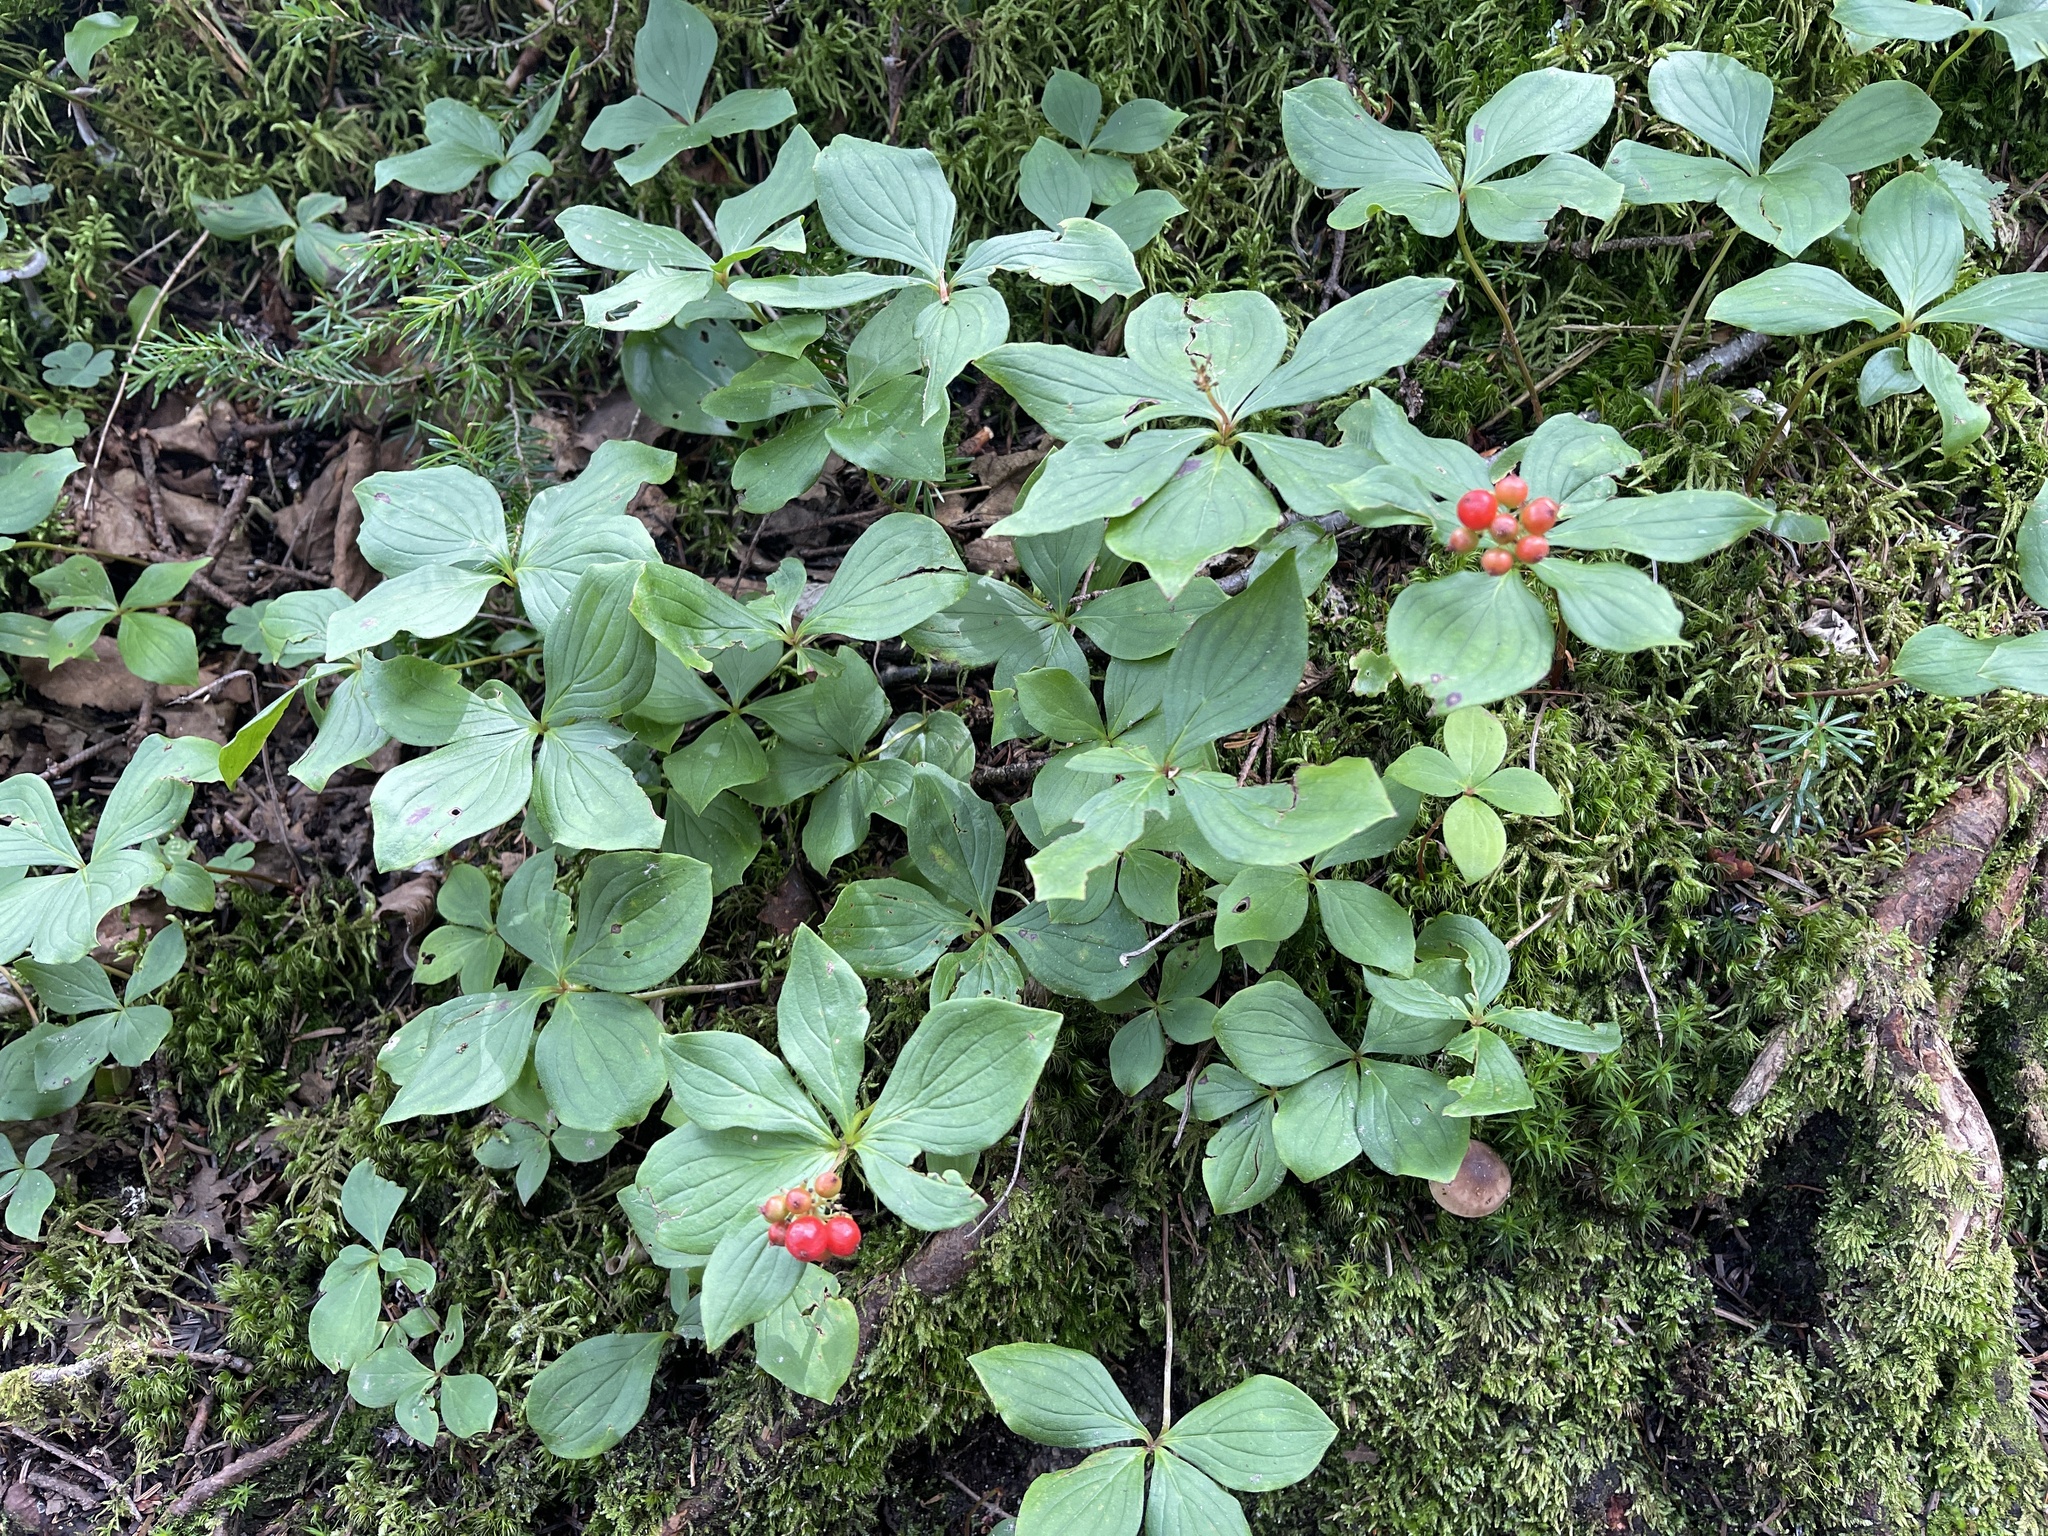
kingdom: Plantae
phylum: Tracheophyta
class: Magnoliopsida
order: Cornales
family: Cornaceae
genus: Cornus
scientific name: Cornus canadensis
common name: Creeping dogwood
